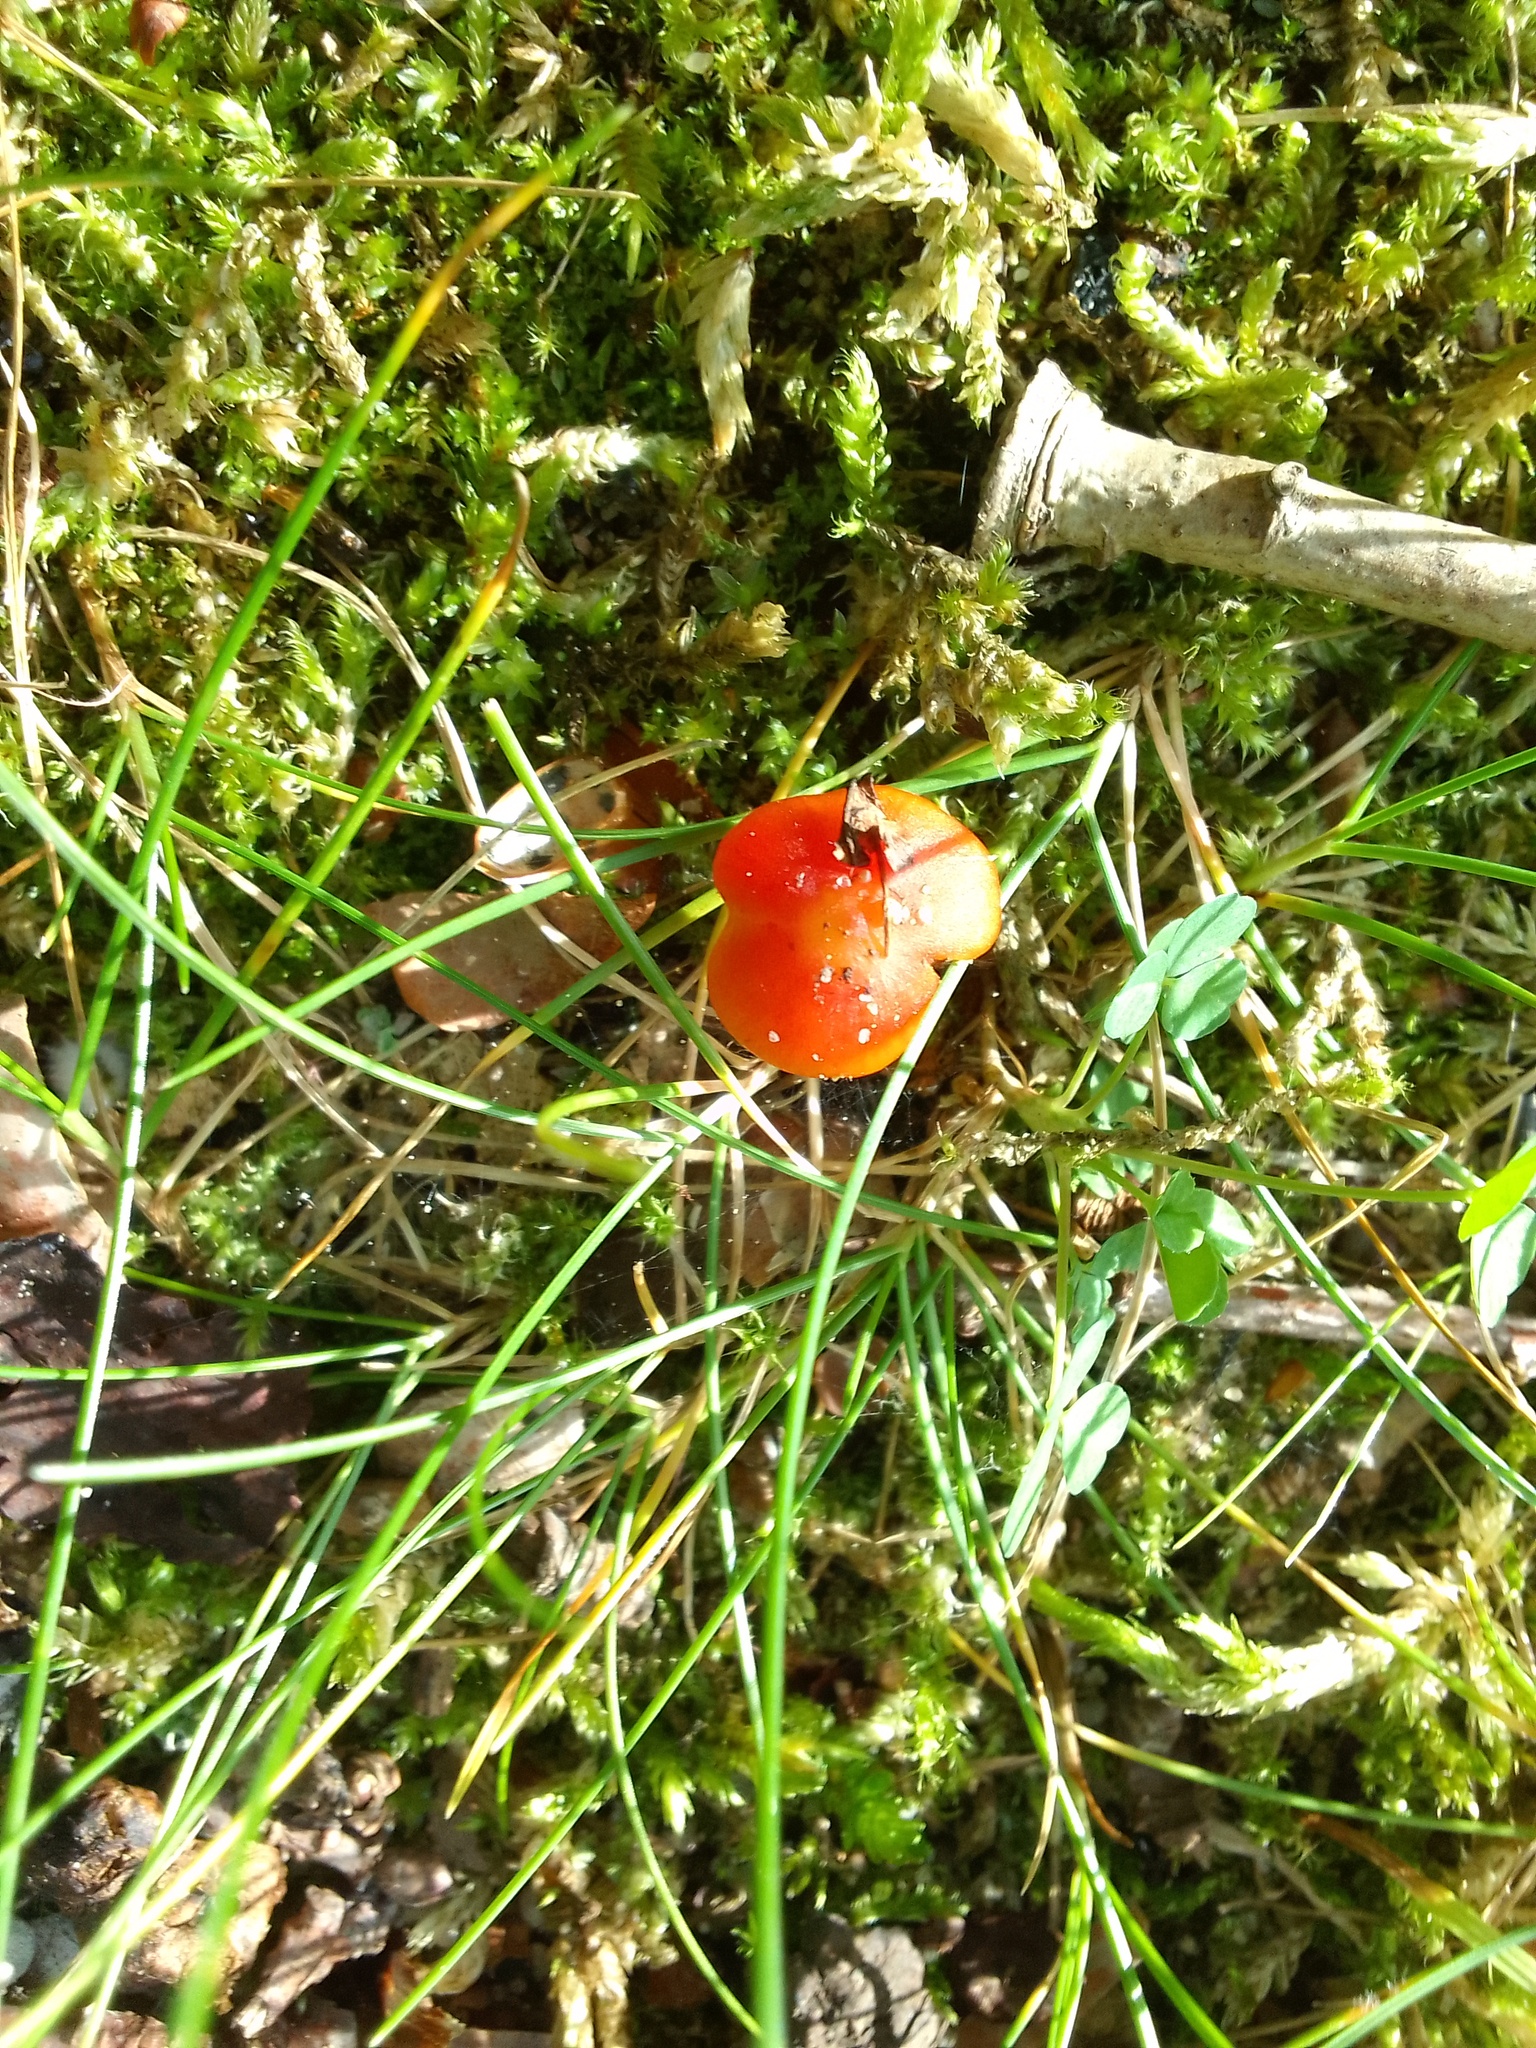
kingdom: Fungi
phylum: Basidiomycota
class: Agaricomycetes
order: Agaricales
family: Hygrophoraceae
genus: Hygrocybe
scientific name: Hygrocybe conica
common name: Blackening wax-cap
